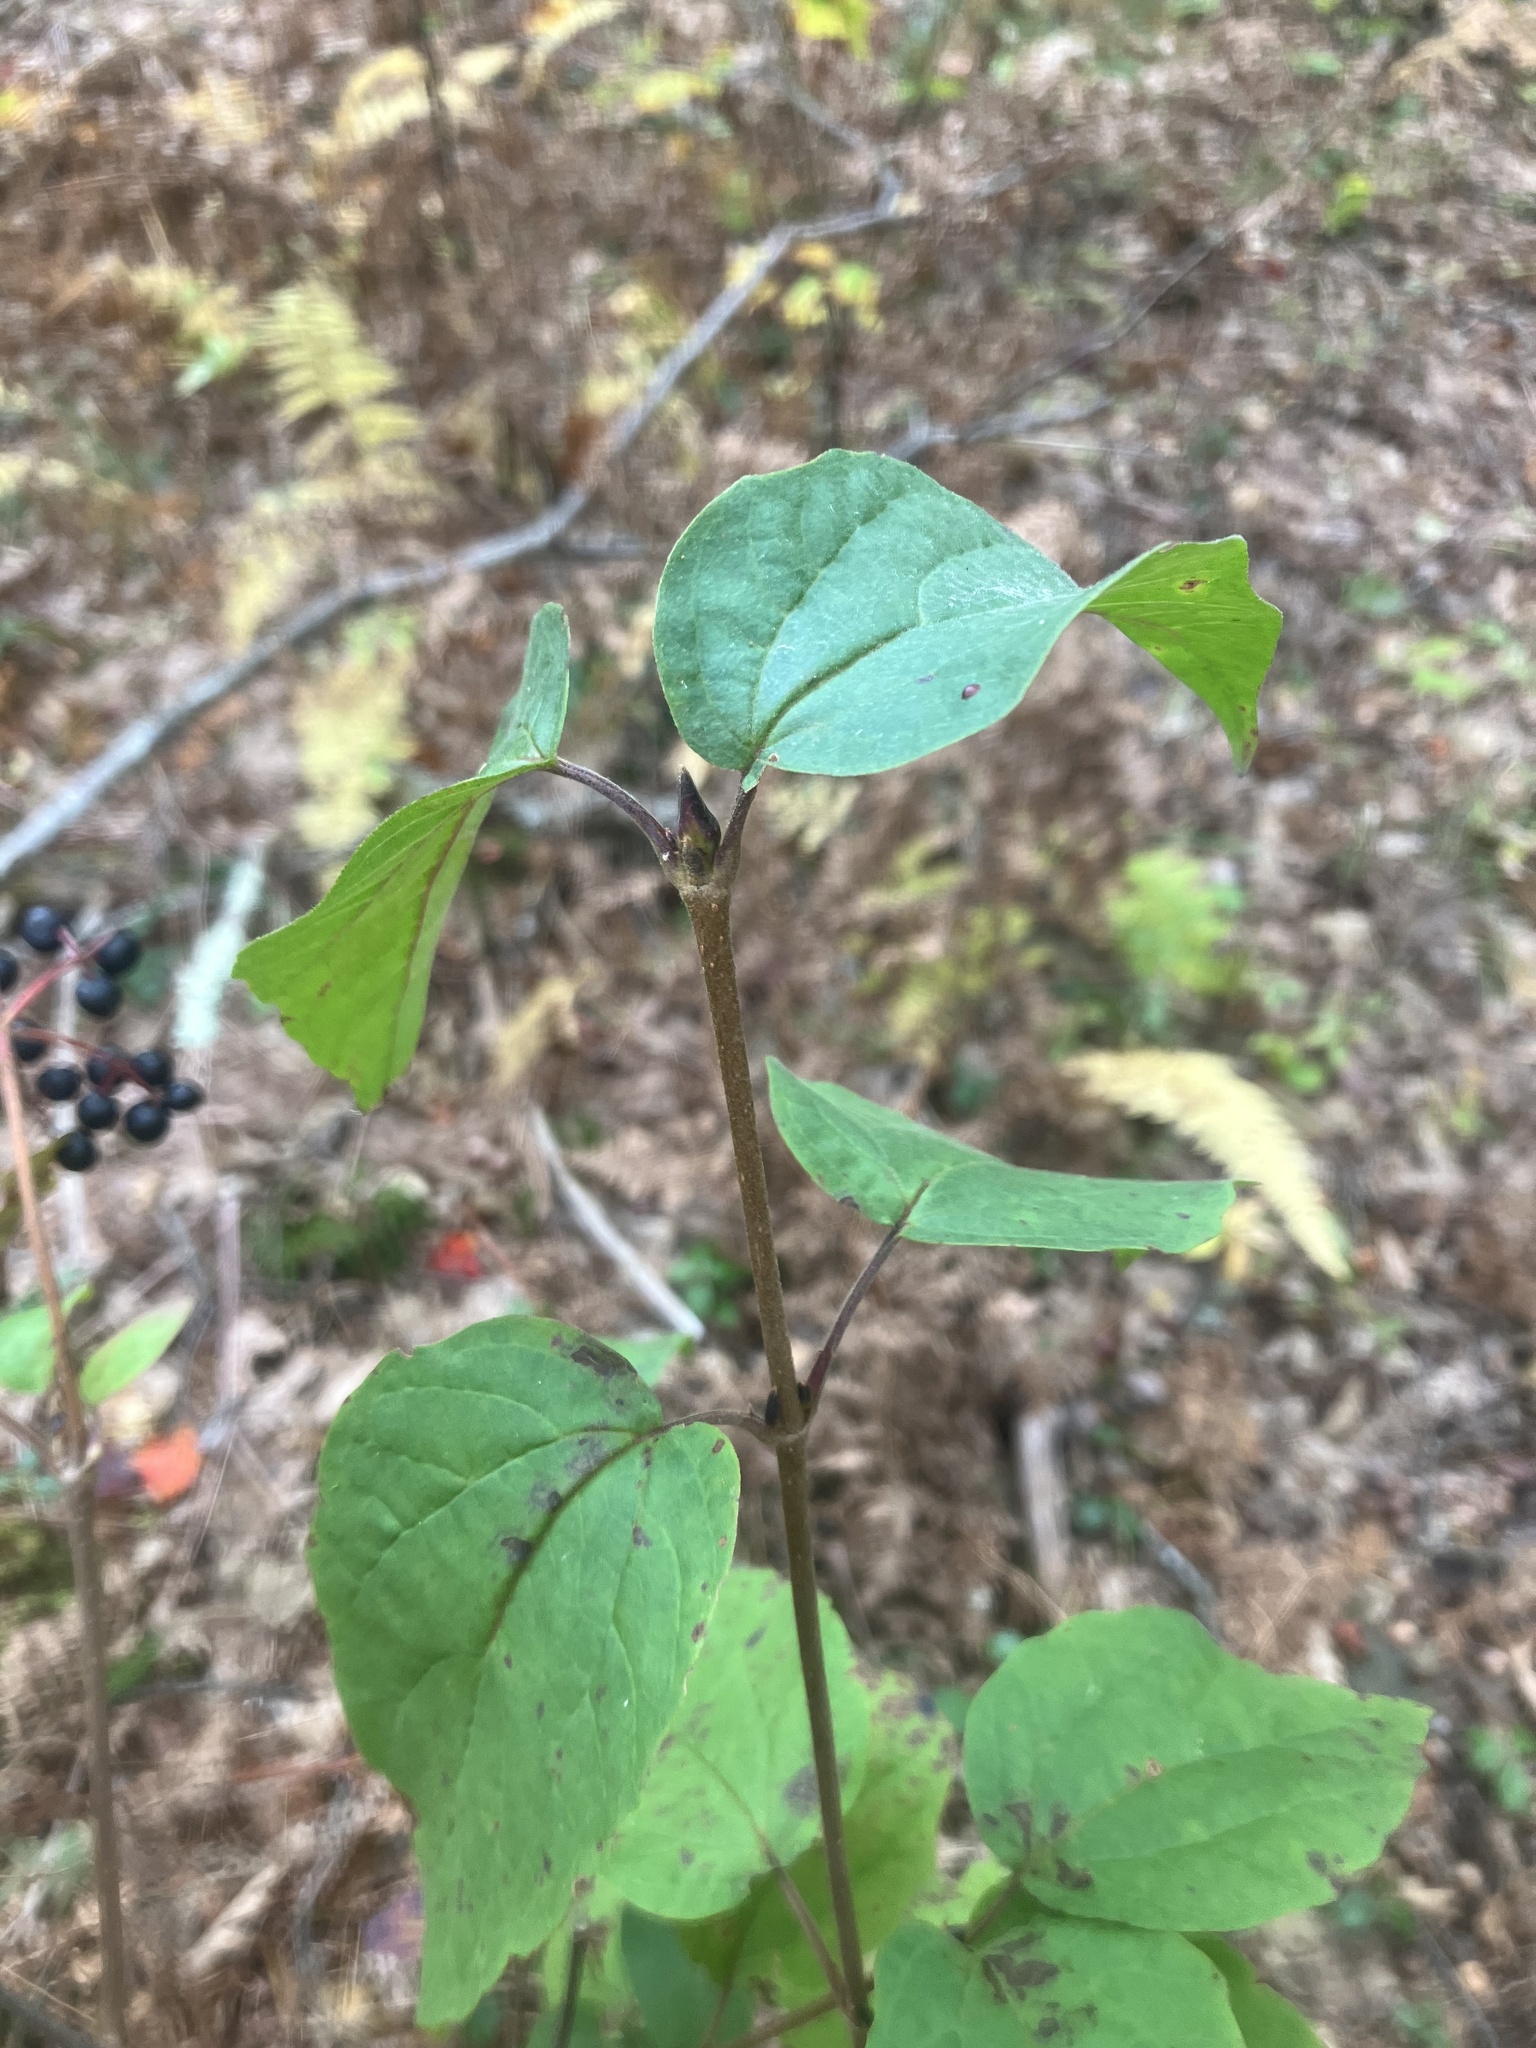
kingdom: Plantae
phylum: Tracheophyta
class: Magnoliopsida
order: Dipsacales
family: Viburnaceae
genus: Viburnum
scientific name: Viburnum acerifolium
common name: Dockmackie
